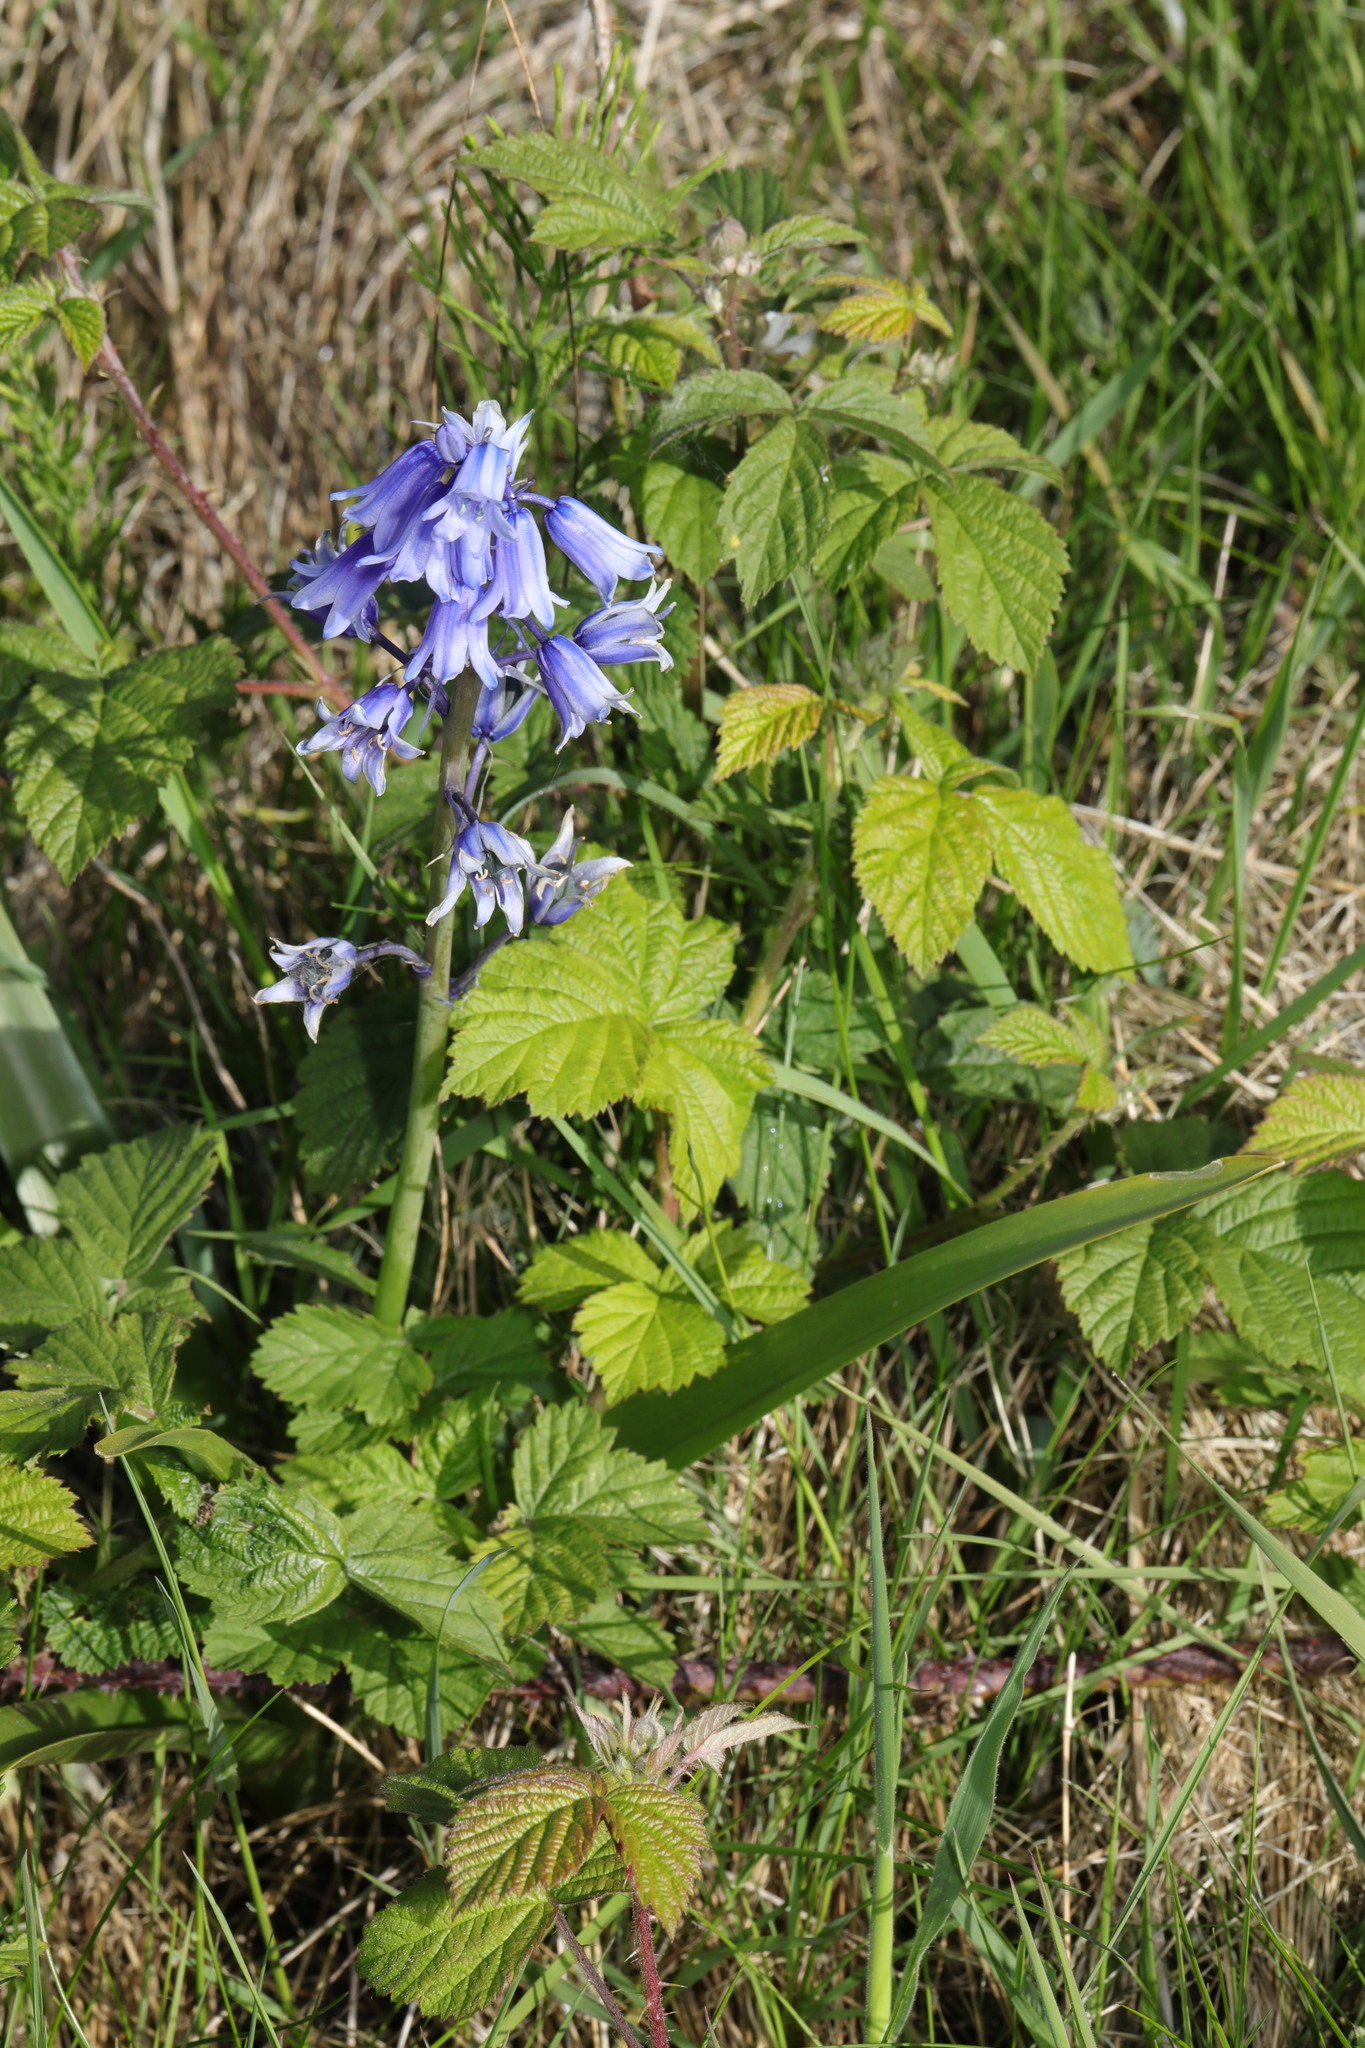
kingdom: Plantae
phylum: Tracheophyta
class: Liliopsida
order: Asparagales
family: Asparagaceae
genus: Hyacinthoides
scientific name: Hyacinthoides hispanica
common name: Spanish bluebell
